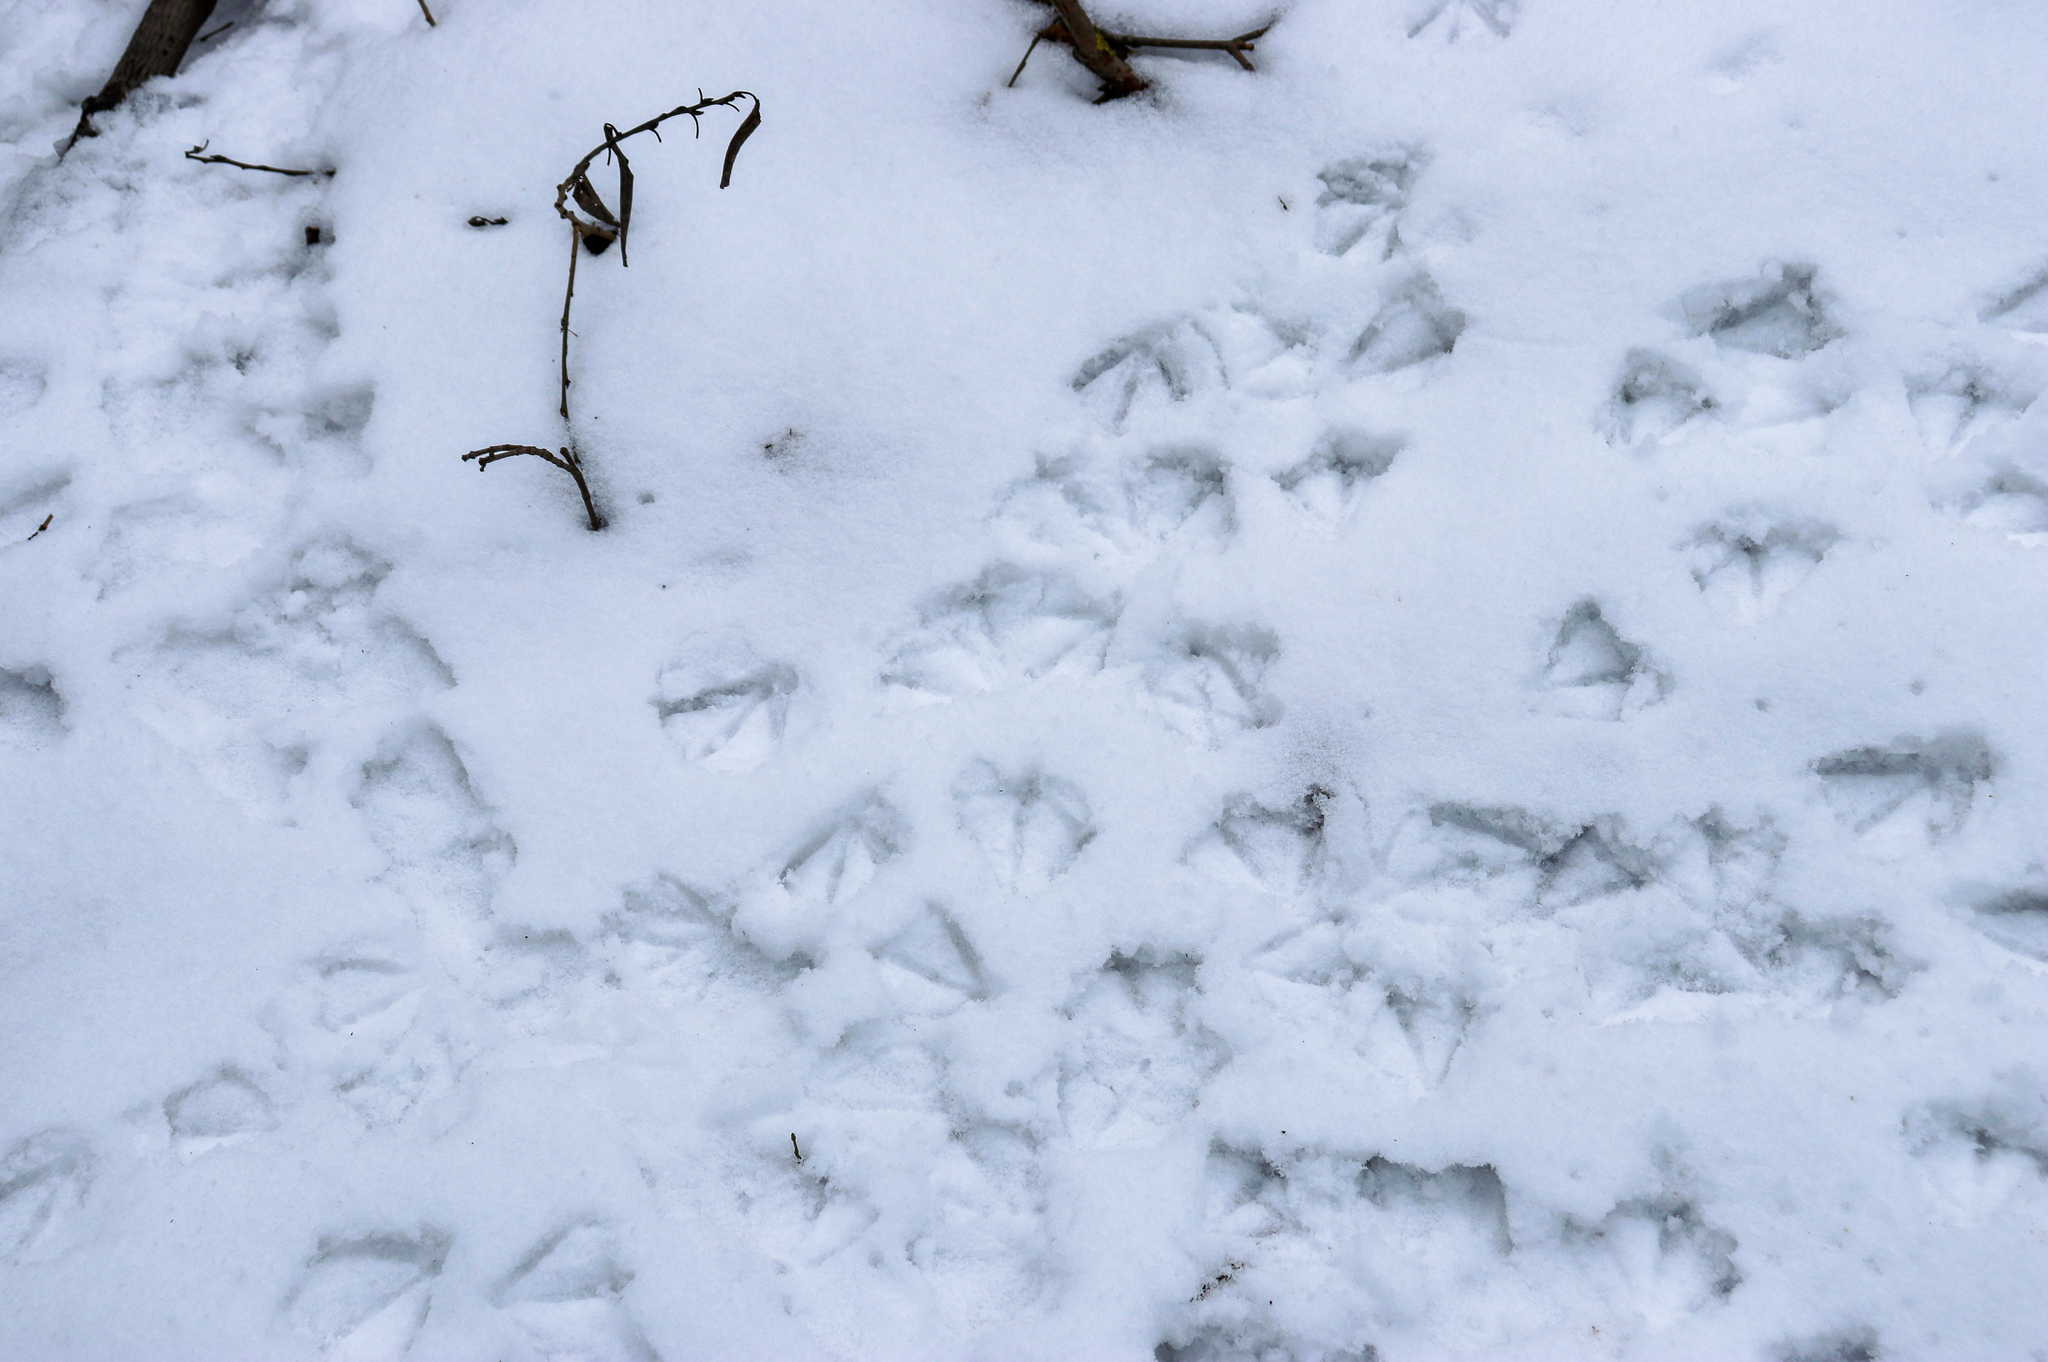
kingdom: Animalia
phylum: Chordata
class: Aves
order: Anseriformes
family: Anatidae
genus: Anas
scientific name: Anas platyrhynchos
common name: Mallard
